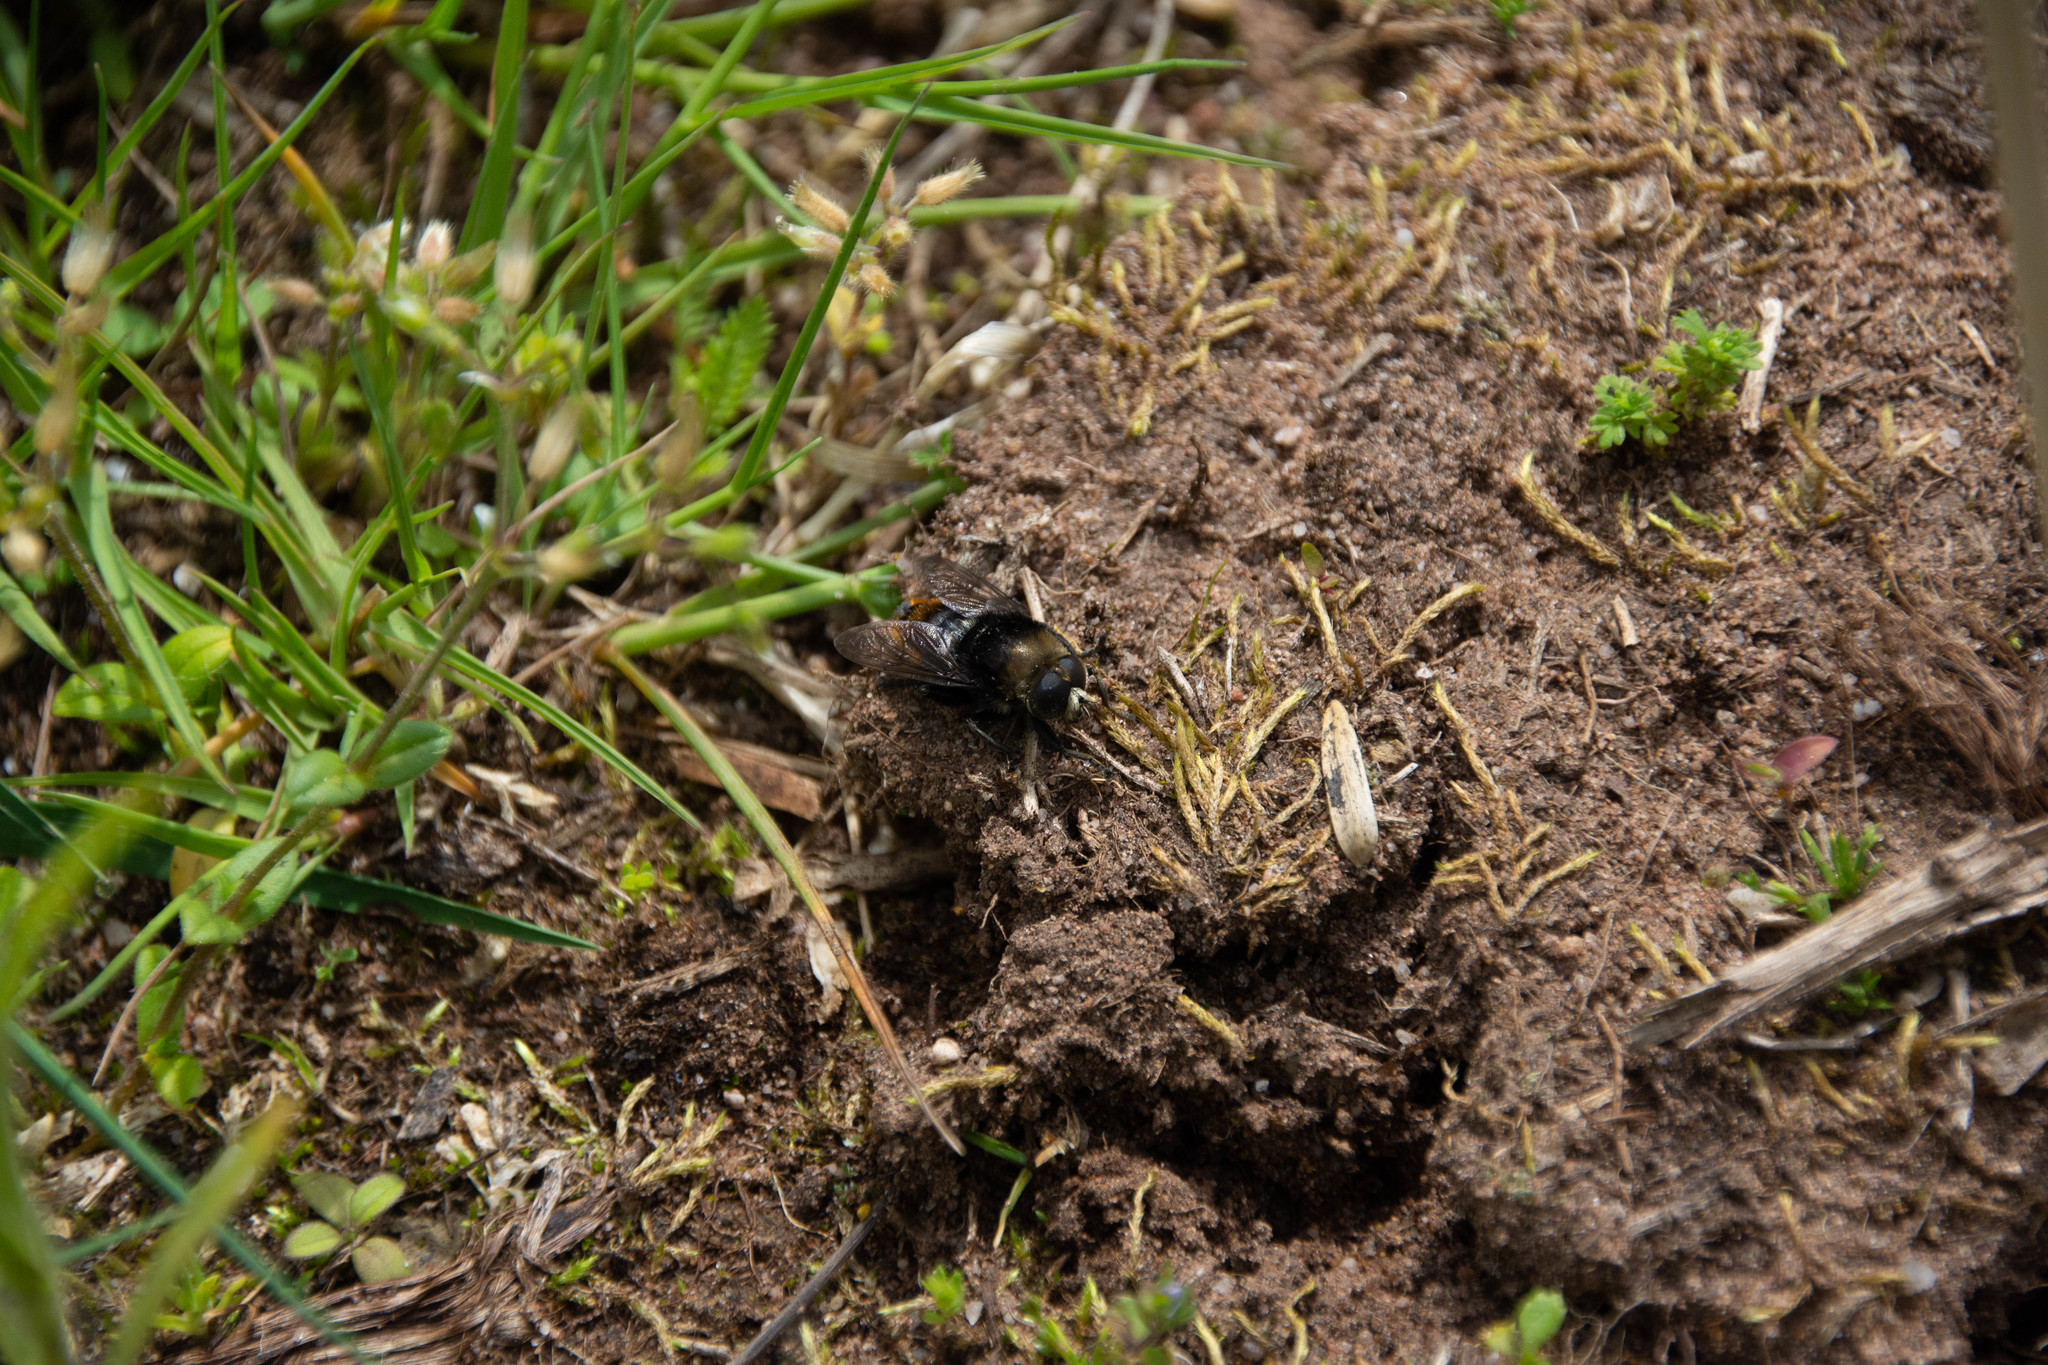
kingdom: Animalia
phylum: Arthropoda
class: Insecta
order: Diptera
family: Syrphidae
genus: Merodon
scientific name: Merodon equestris
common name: Greater bulb-fly
